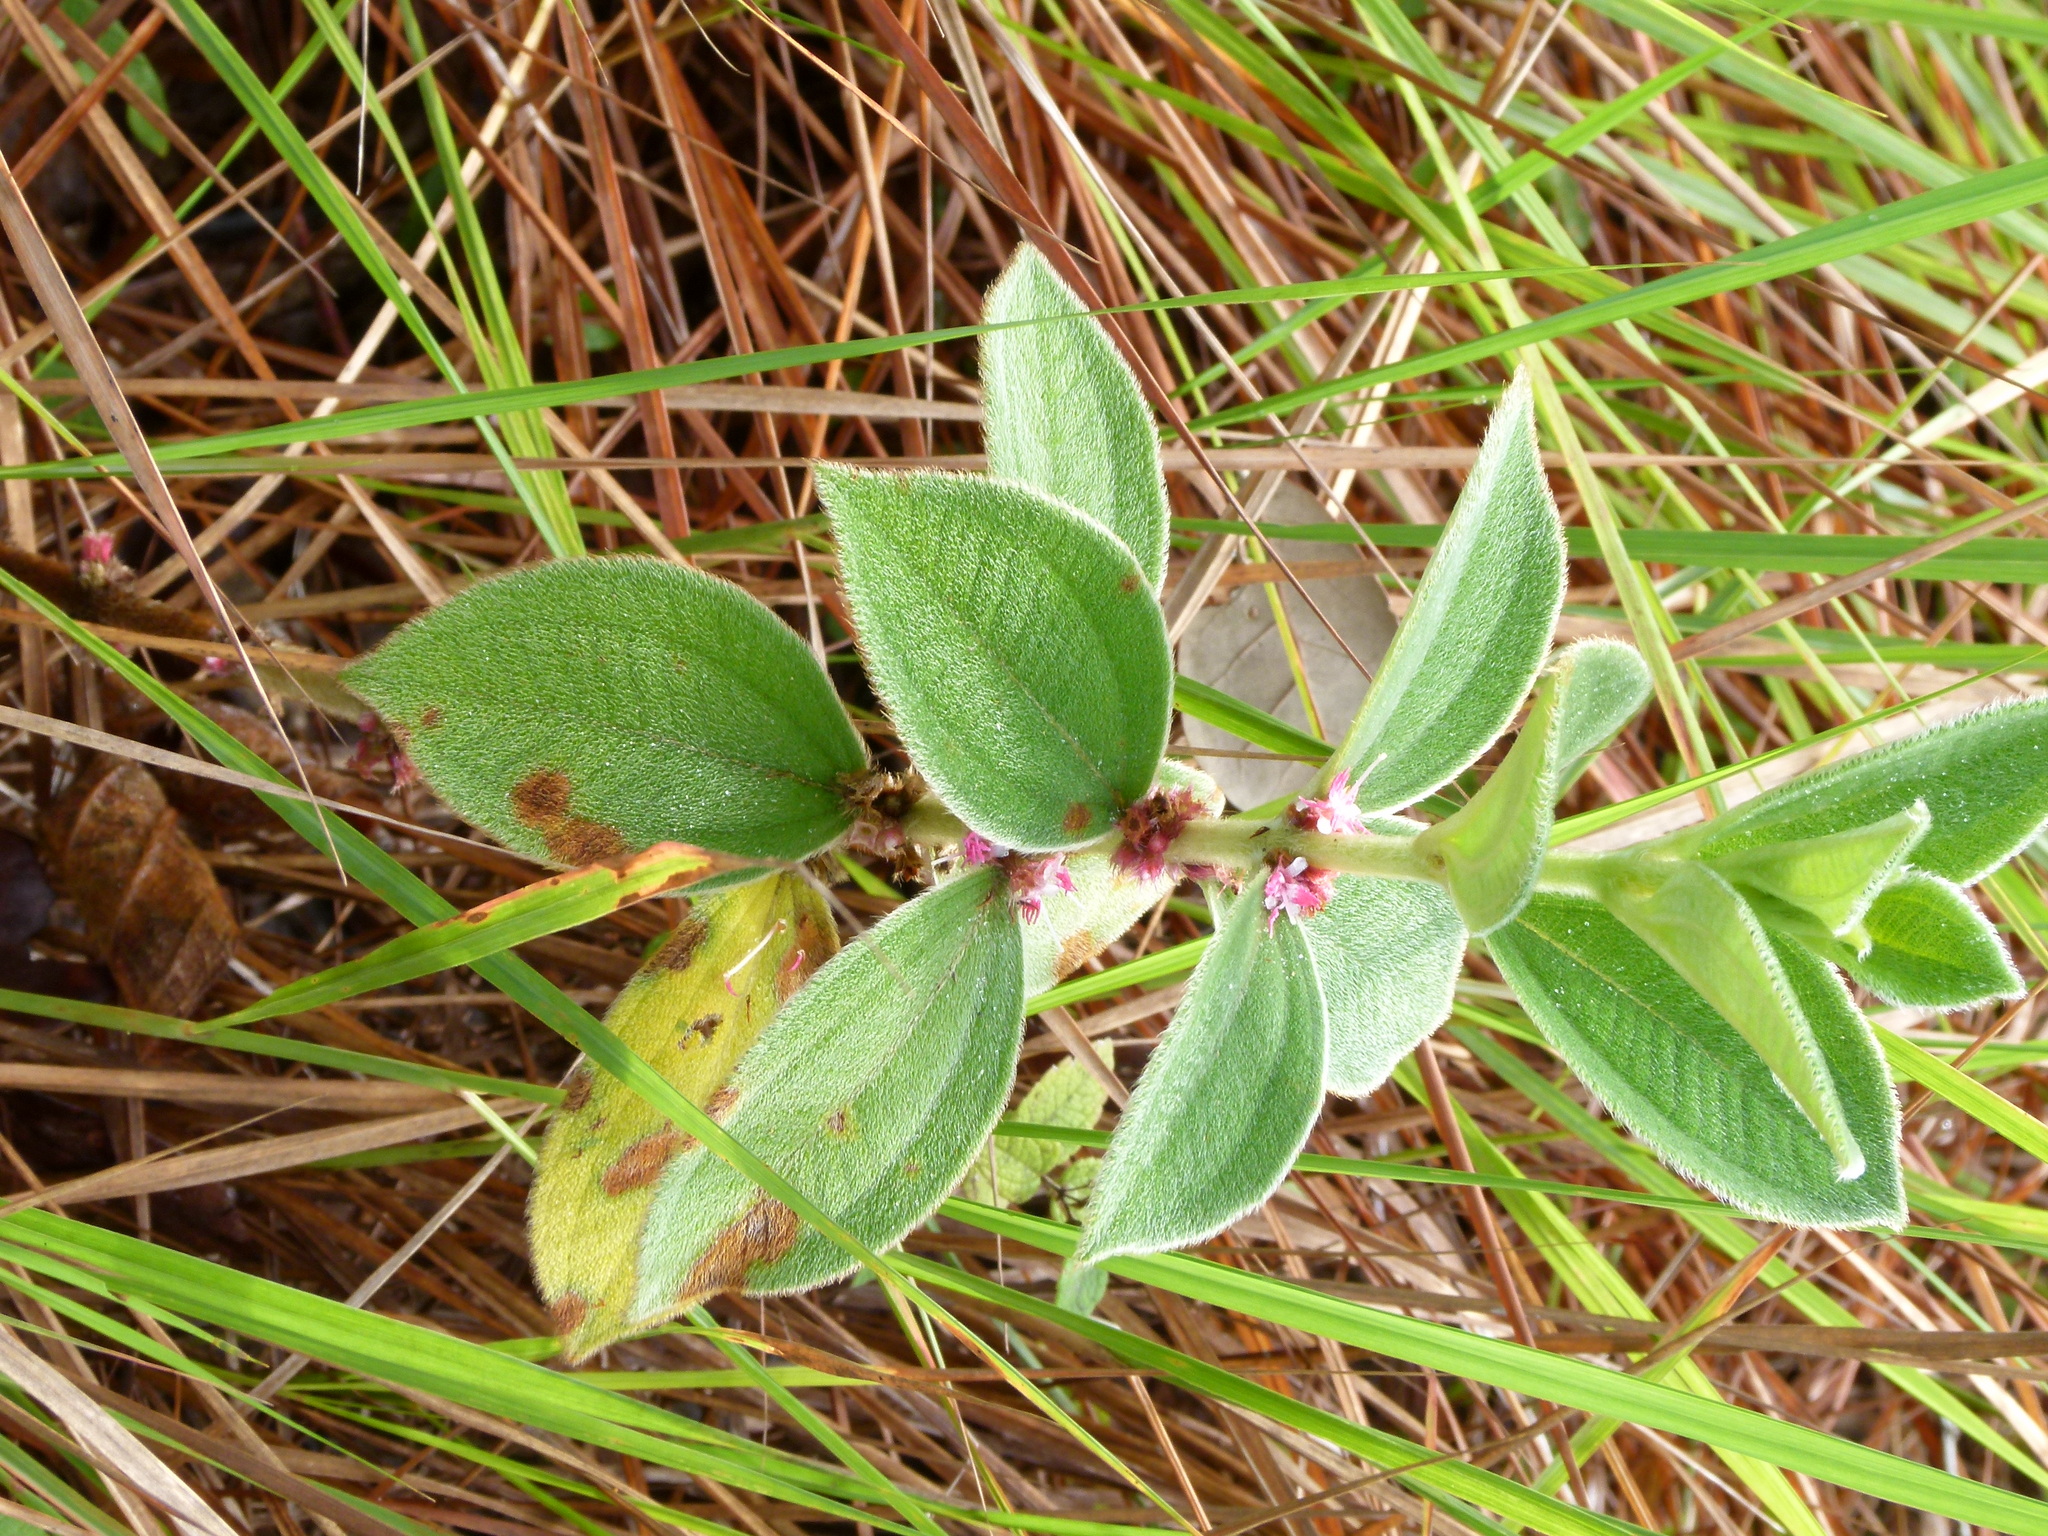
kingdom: Plantae
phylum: Tracheophyta
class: Magnoliopsida
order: Myrtales
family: Melastomataceae
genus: Miconia
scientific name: Miconia sericea
